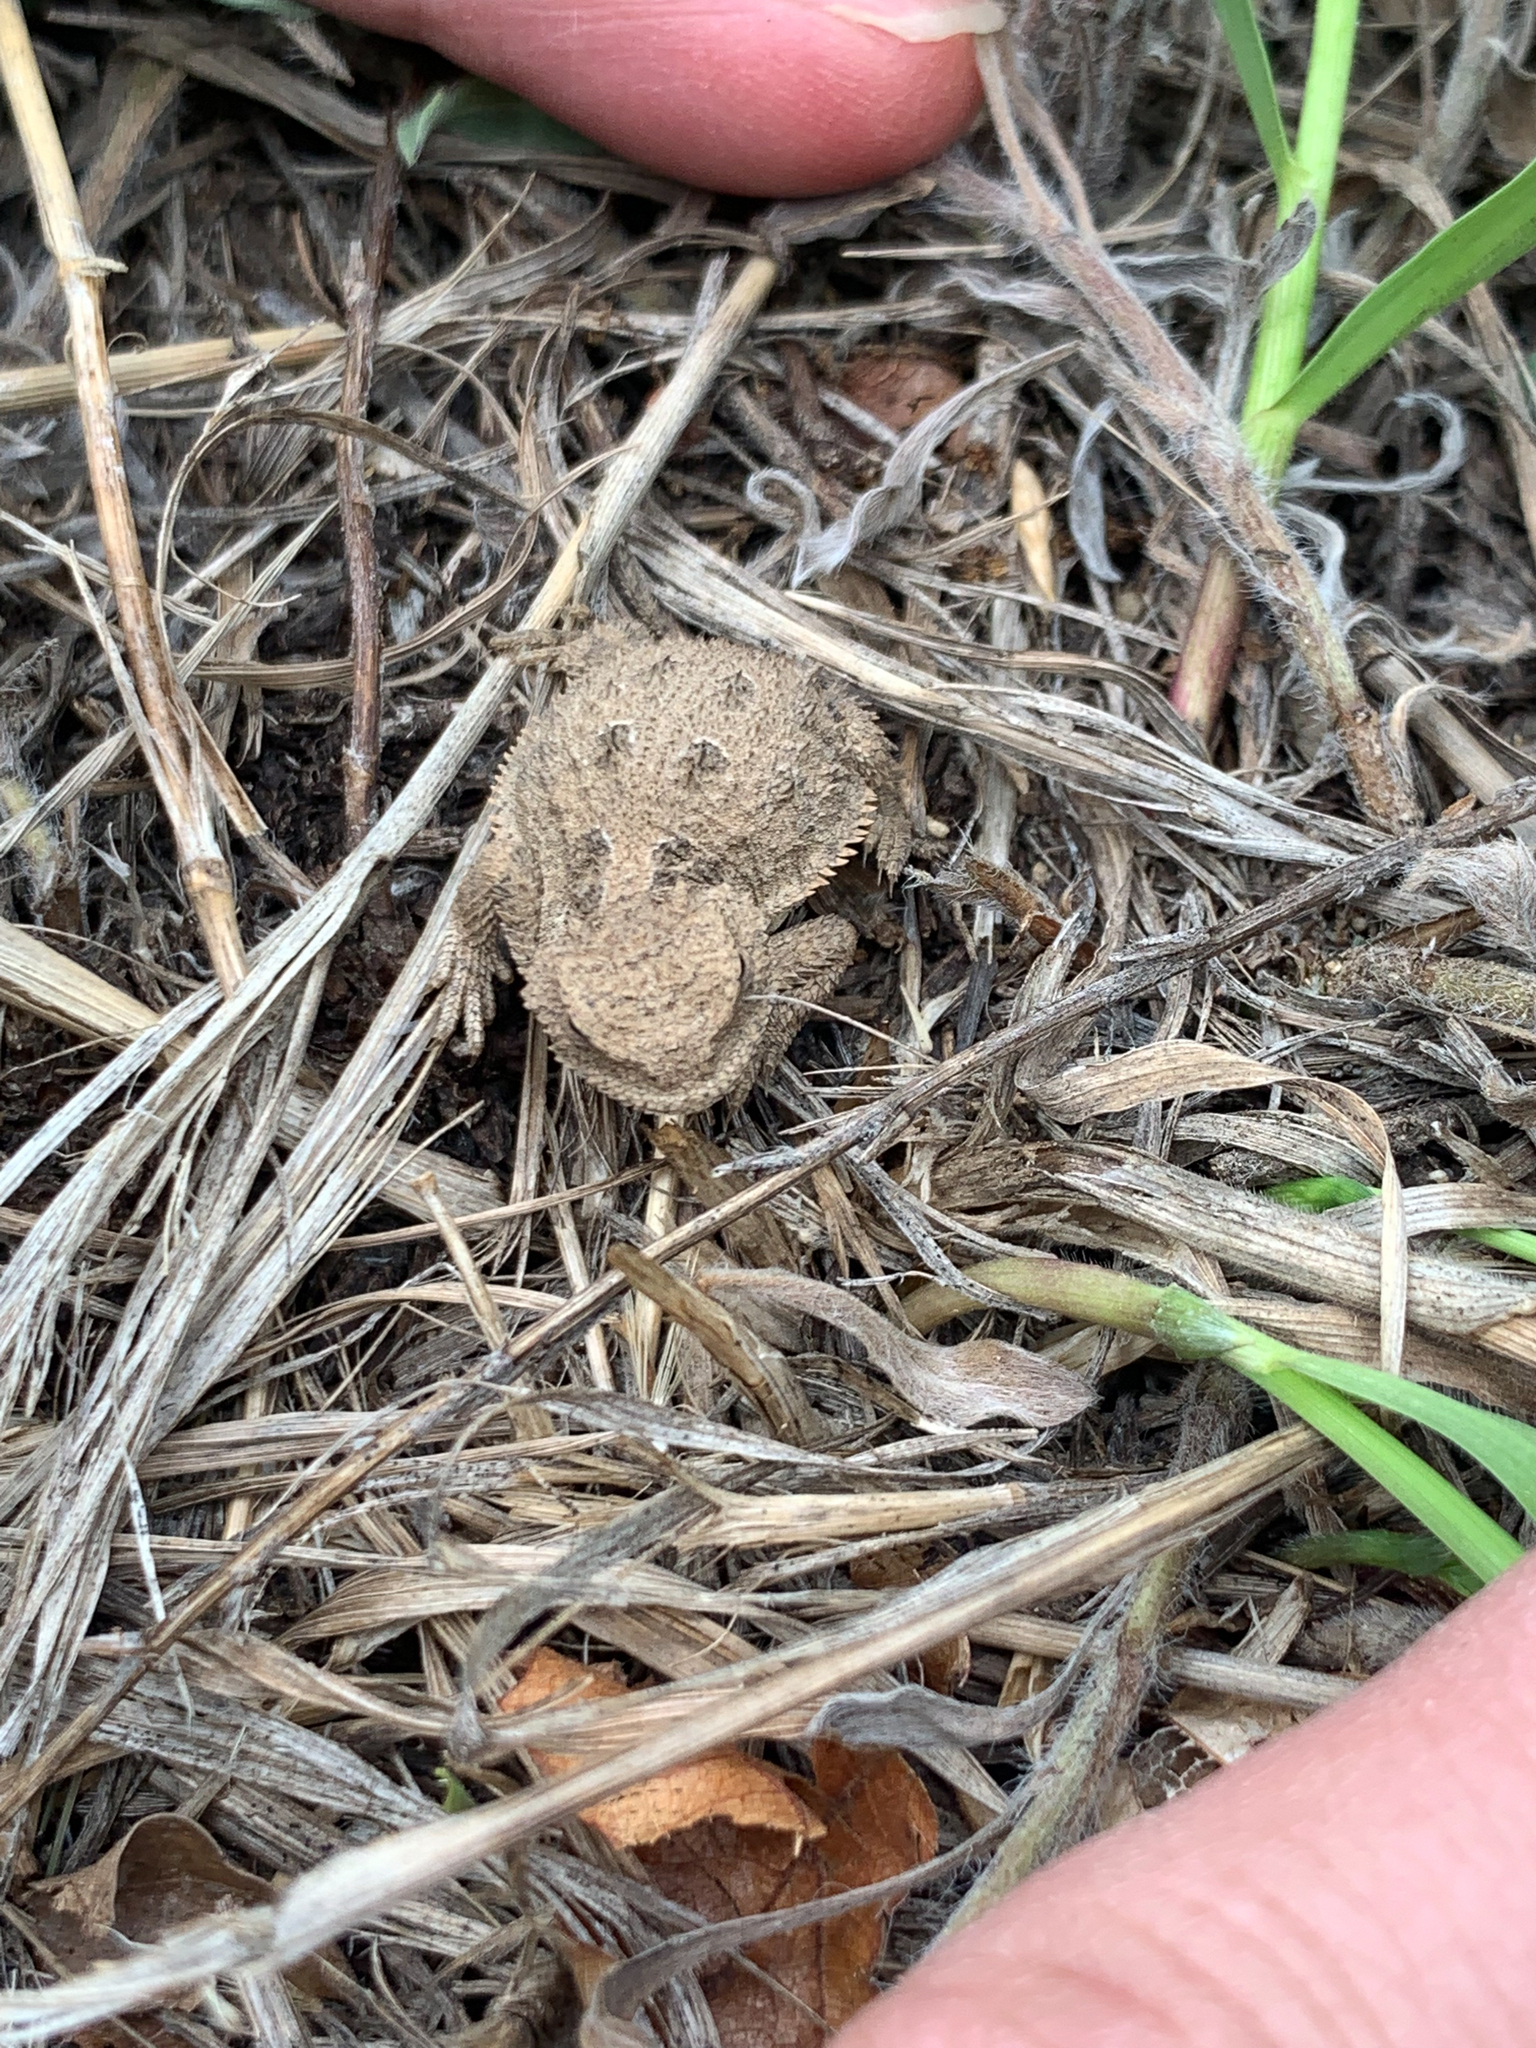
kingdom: Animalia
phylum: Chordata
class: Squamata
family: Phrynosomatidae
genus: Phrynosoma
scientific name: Phrynosoma hernandesi
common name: Greater short-horned lizard
